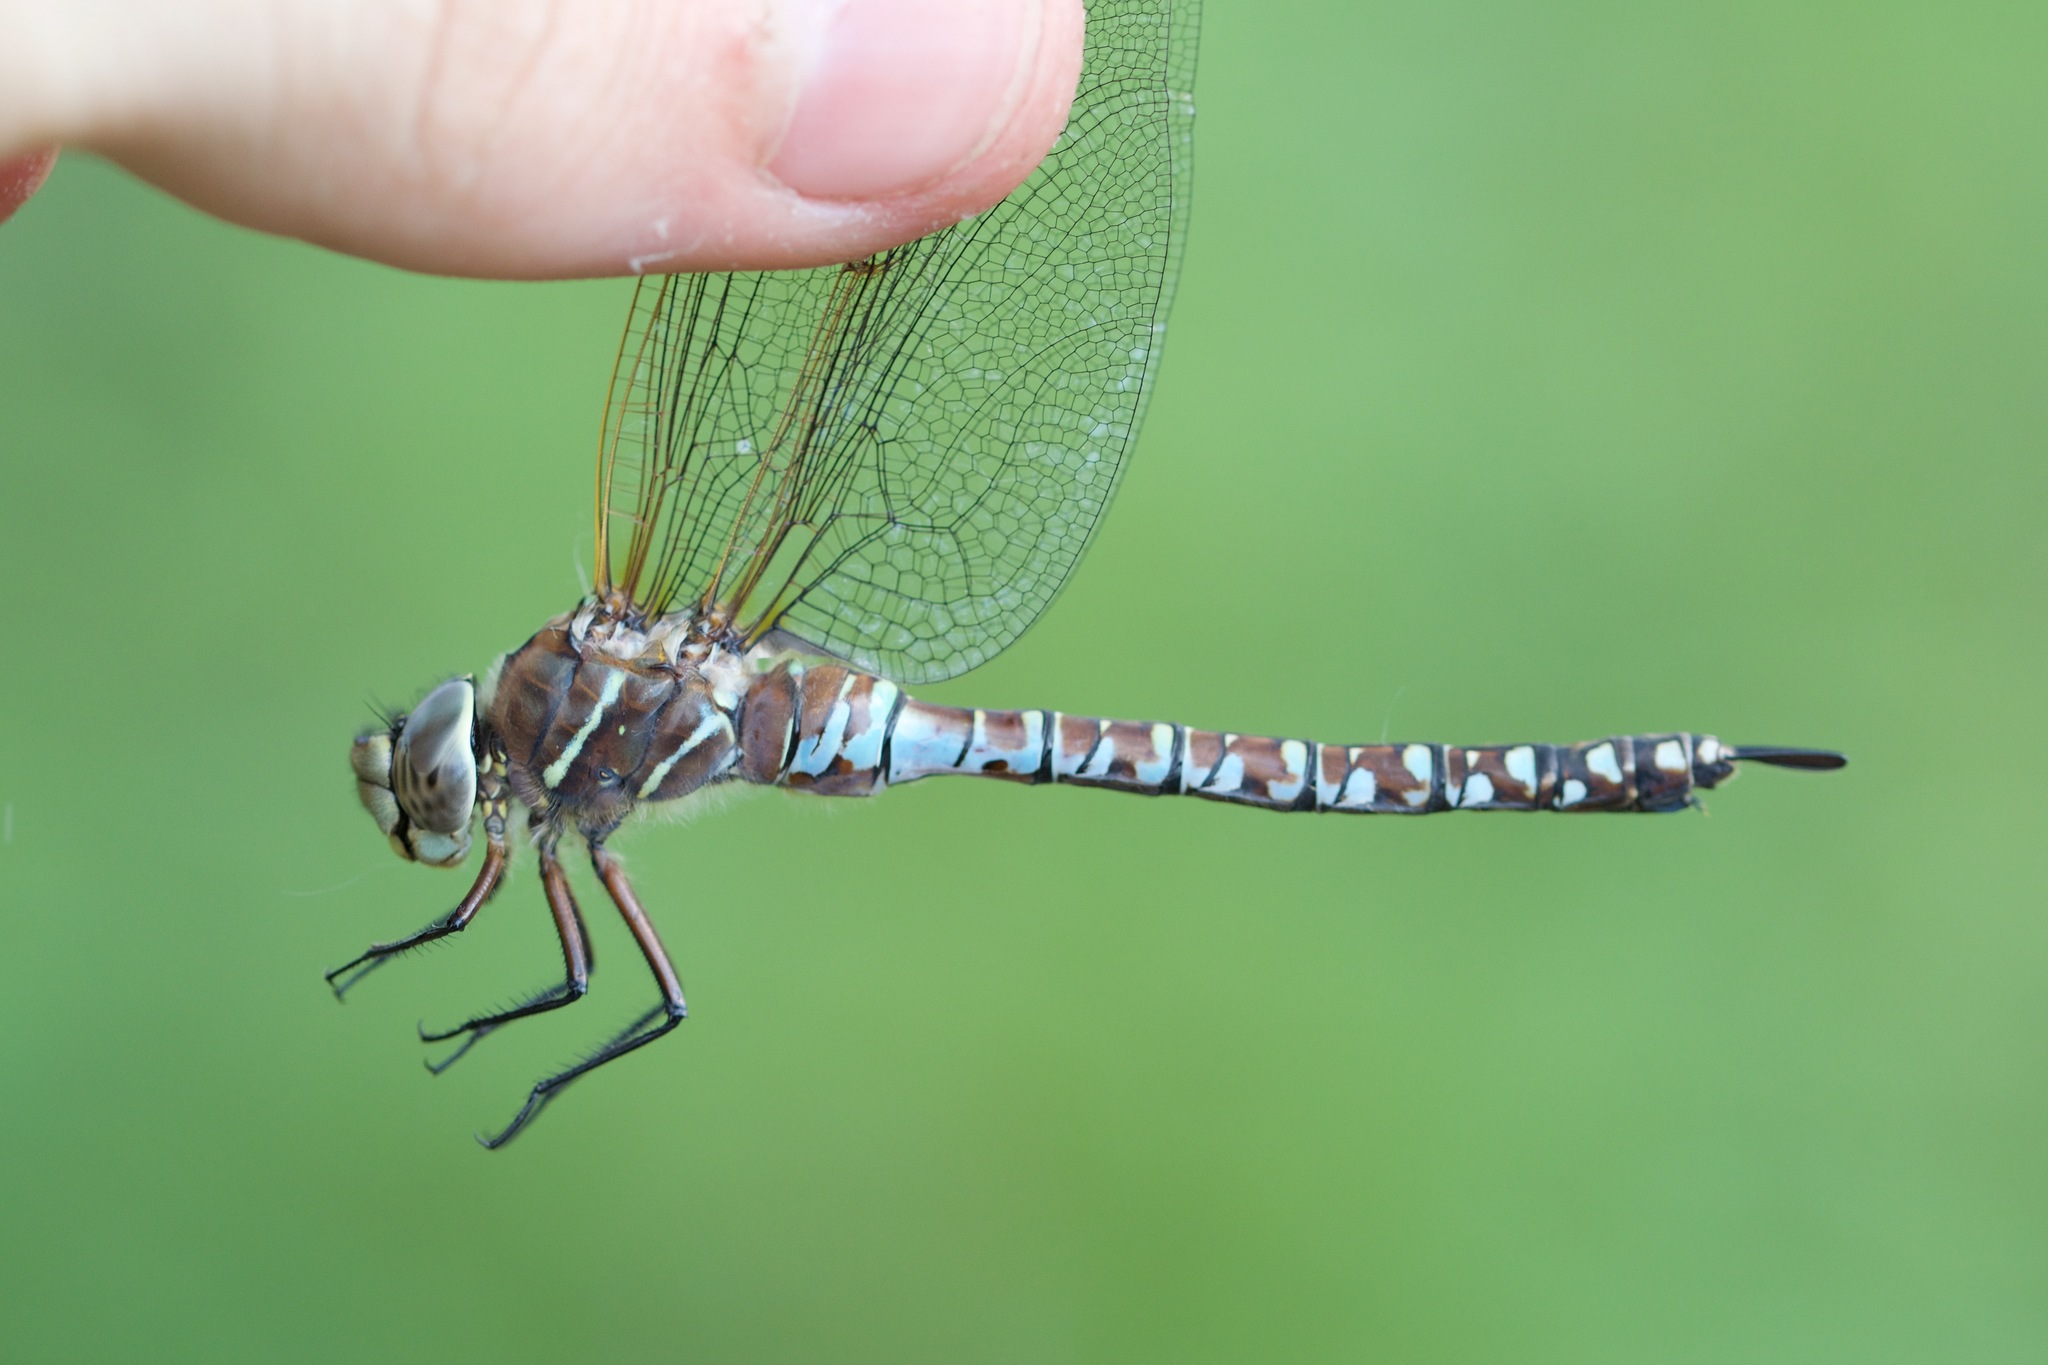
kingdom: Animalia
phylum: Arthropoda
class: Insecta
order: Odonata
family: Aeshnidae
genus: Aeshna
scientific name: Aeshna interrupta
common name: Variable darner
